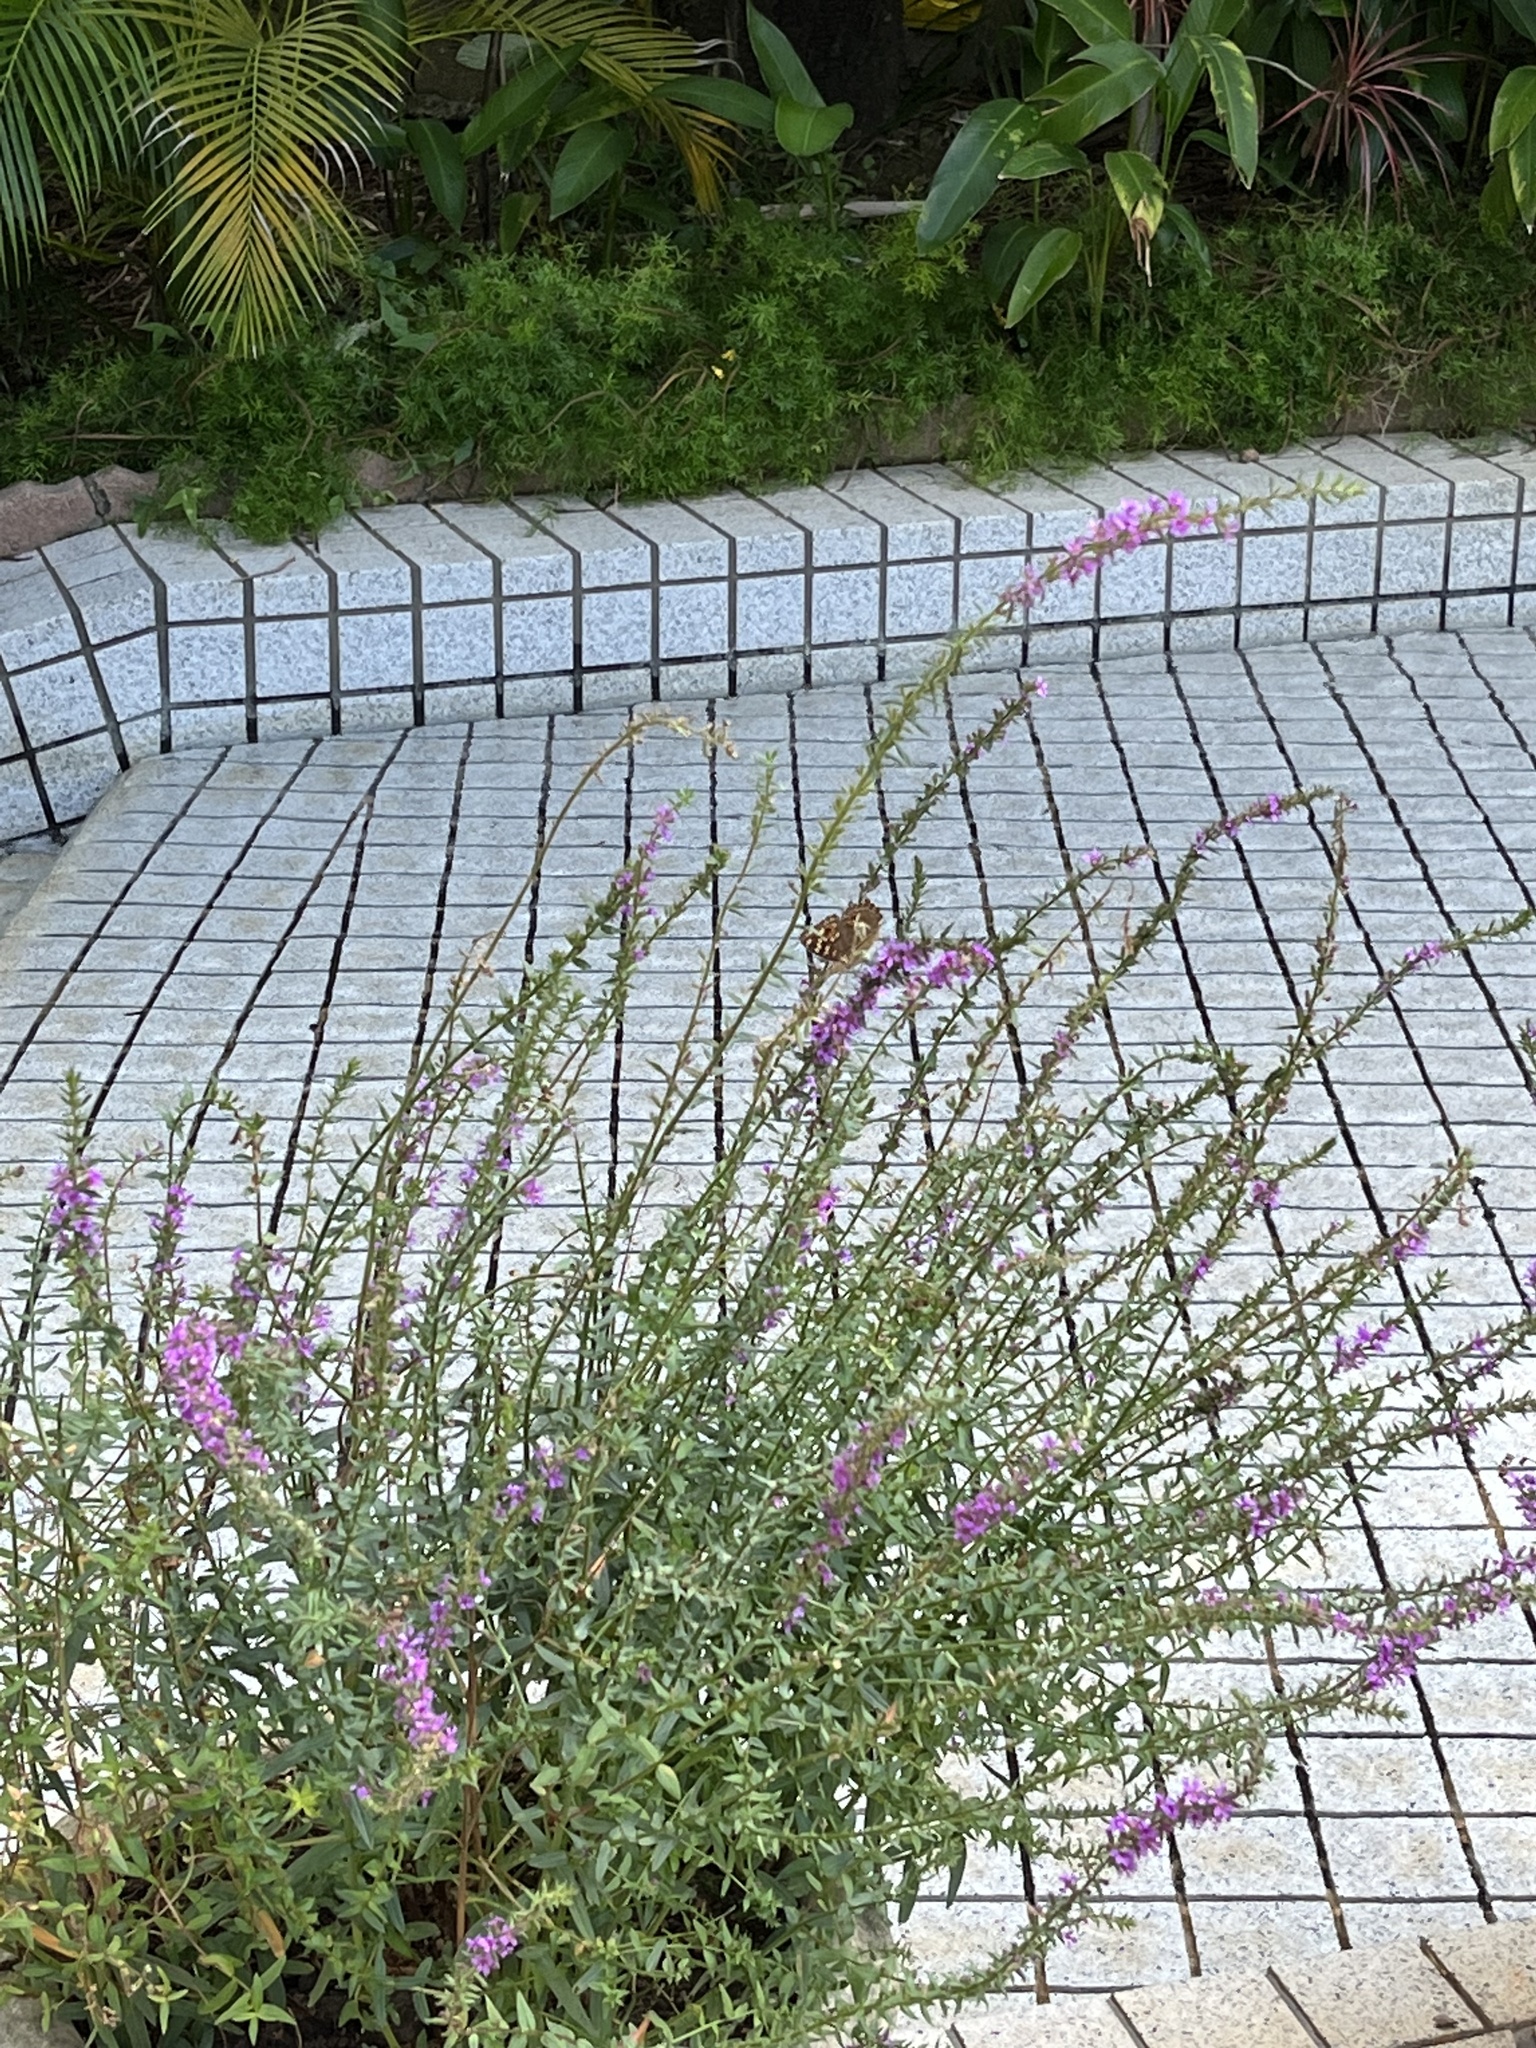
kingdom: Animalia
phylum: Arthropoda
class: Insecta
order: Lepidoptera
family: Nymphalidae
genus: Junonia
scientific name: Junonia lemonias
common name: Lemon pansy
